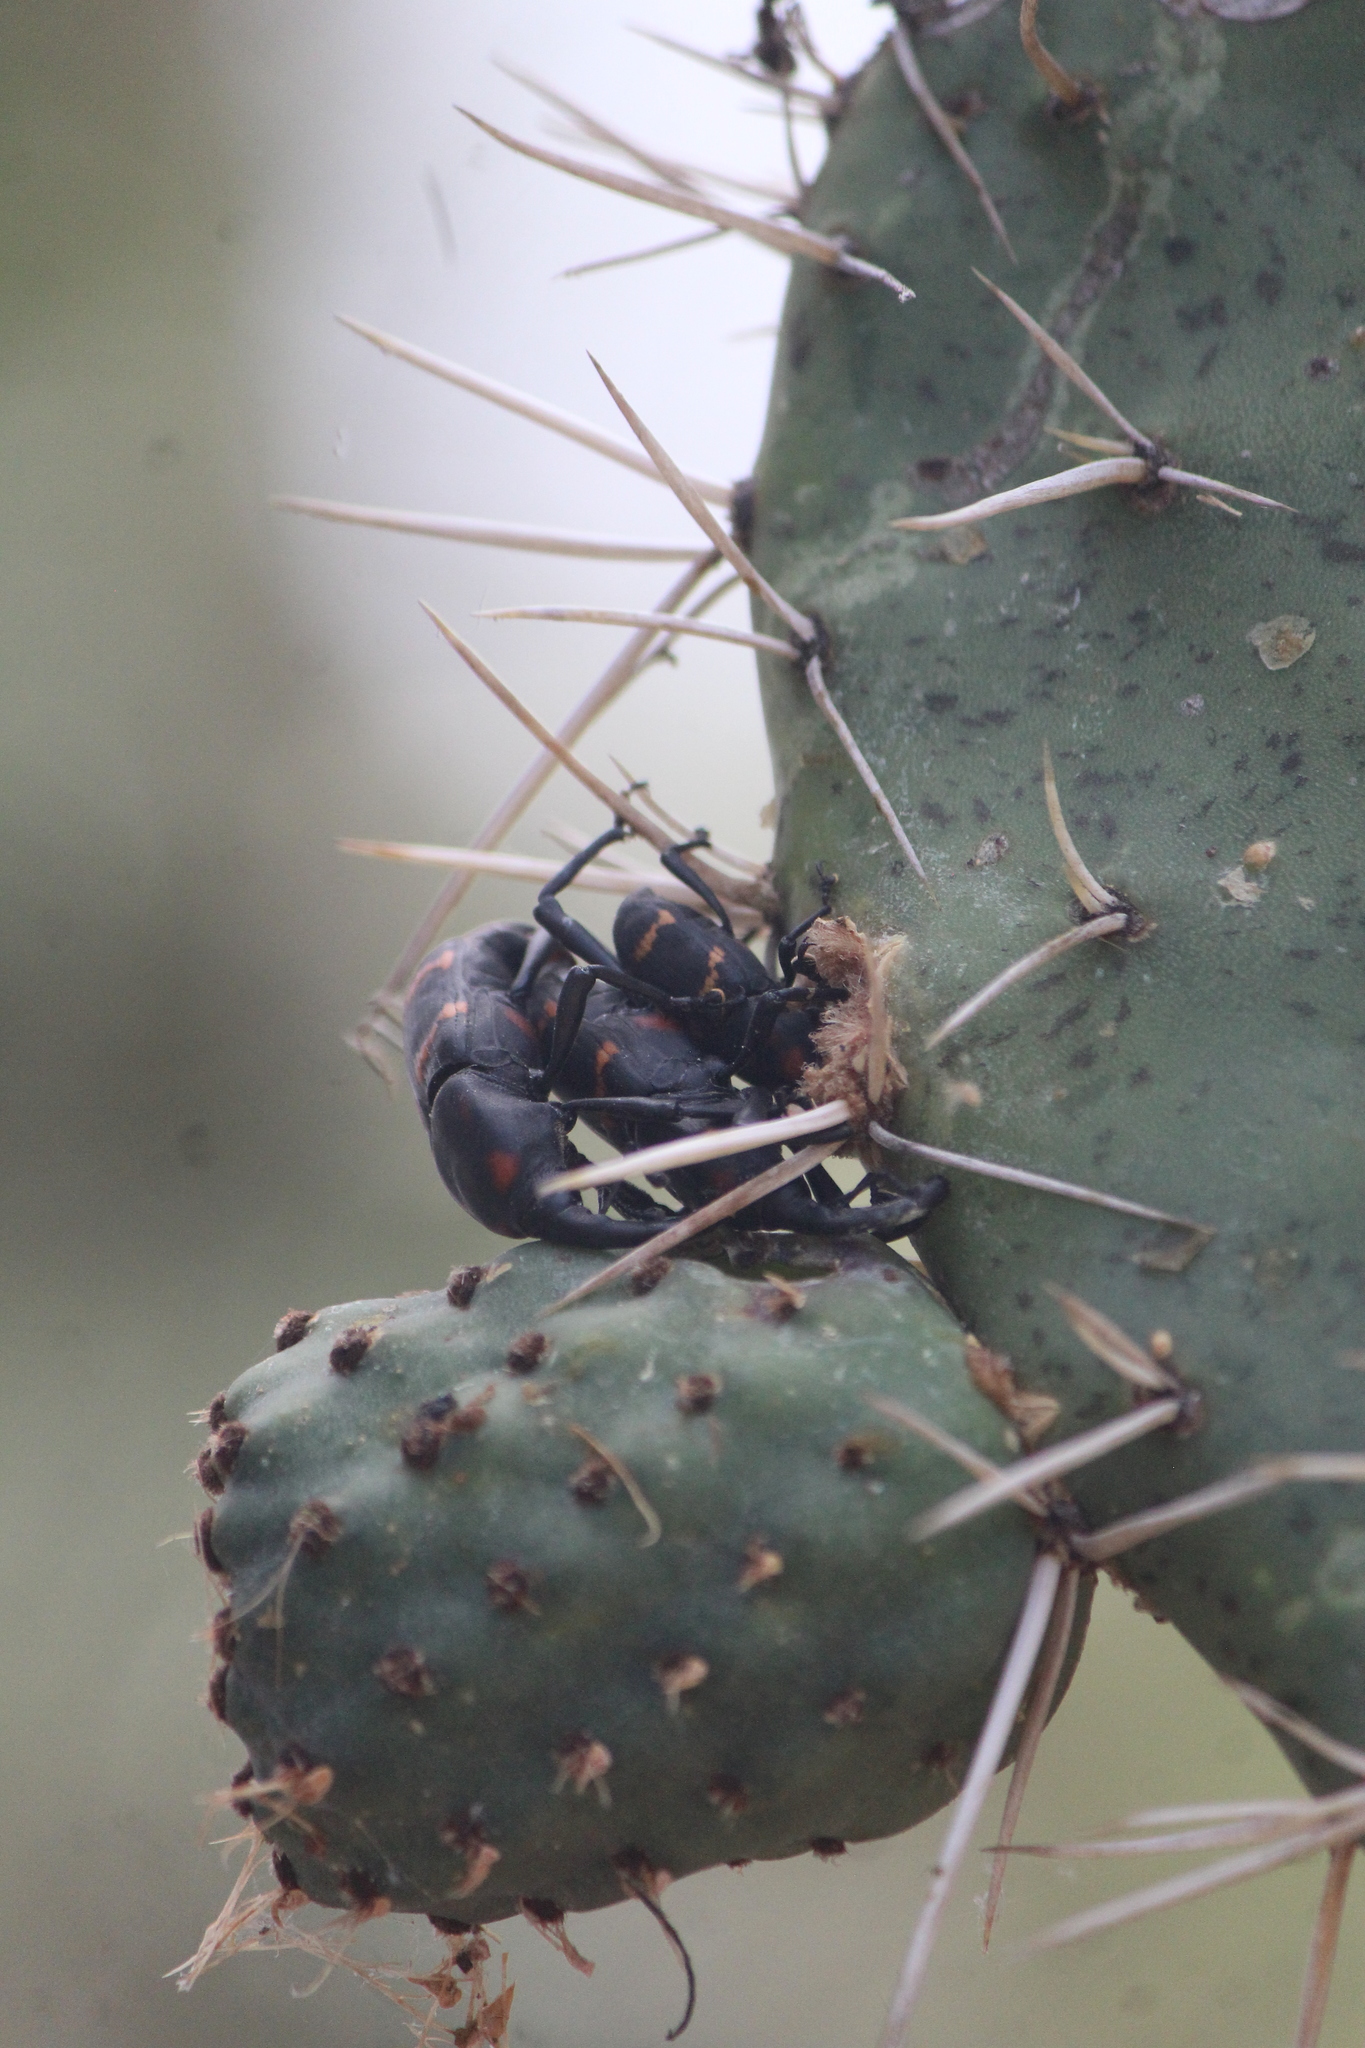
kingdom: Animalia
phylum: Arthropoda
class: Insecta
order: Coleoptera
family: Dryophthoridae
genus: Cactophagus
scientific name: Cactophagus spinolae
